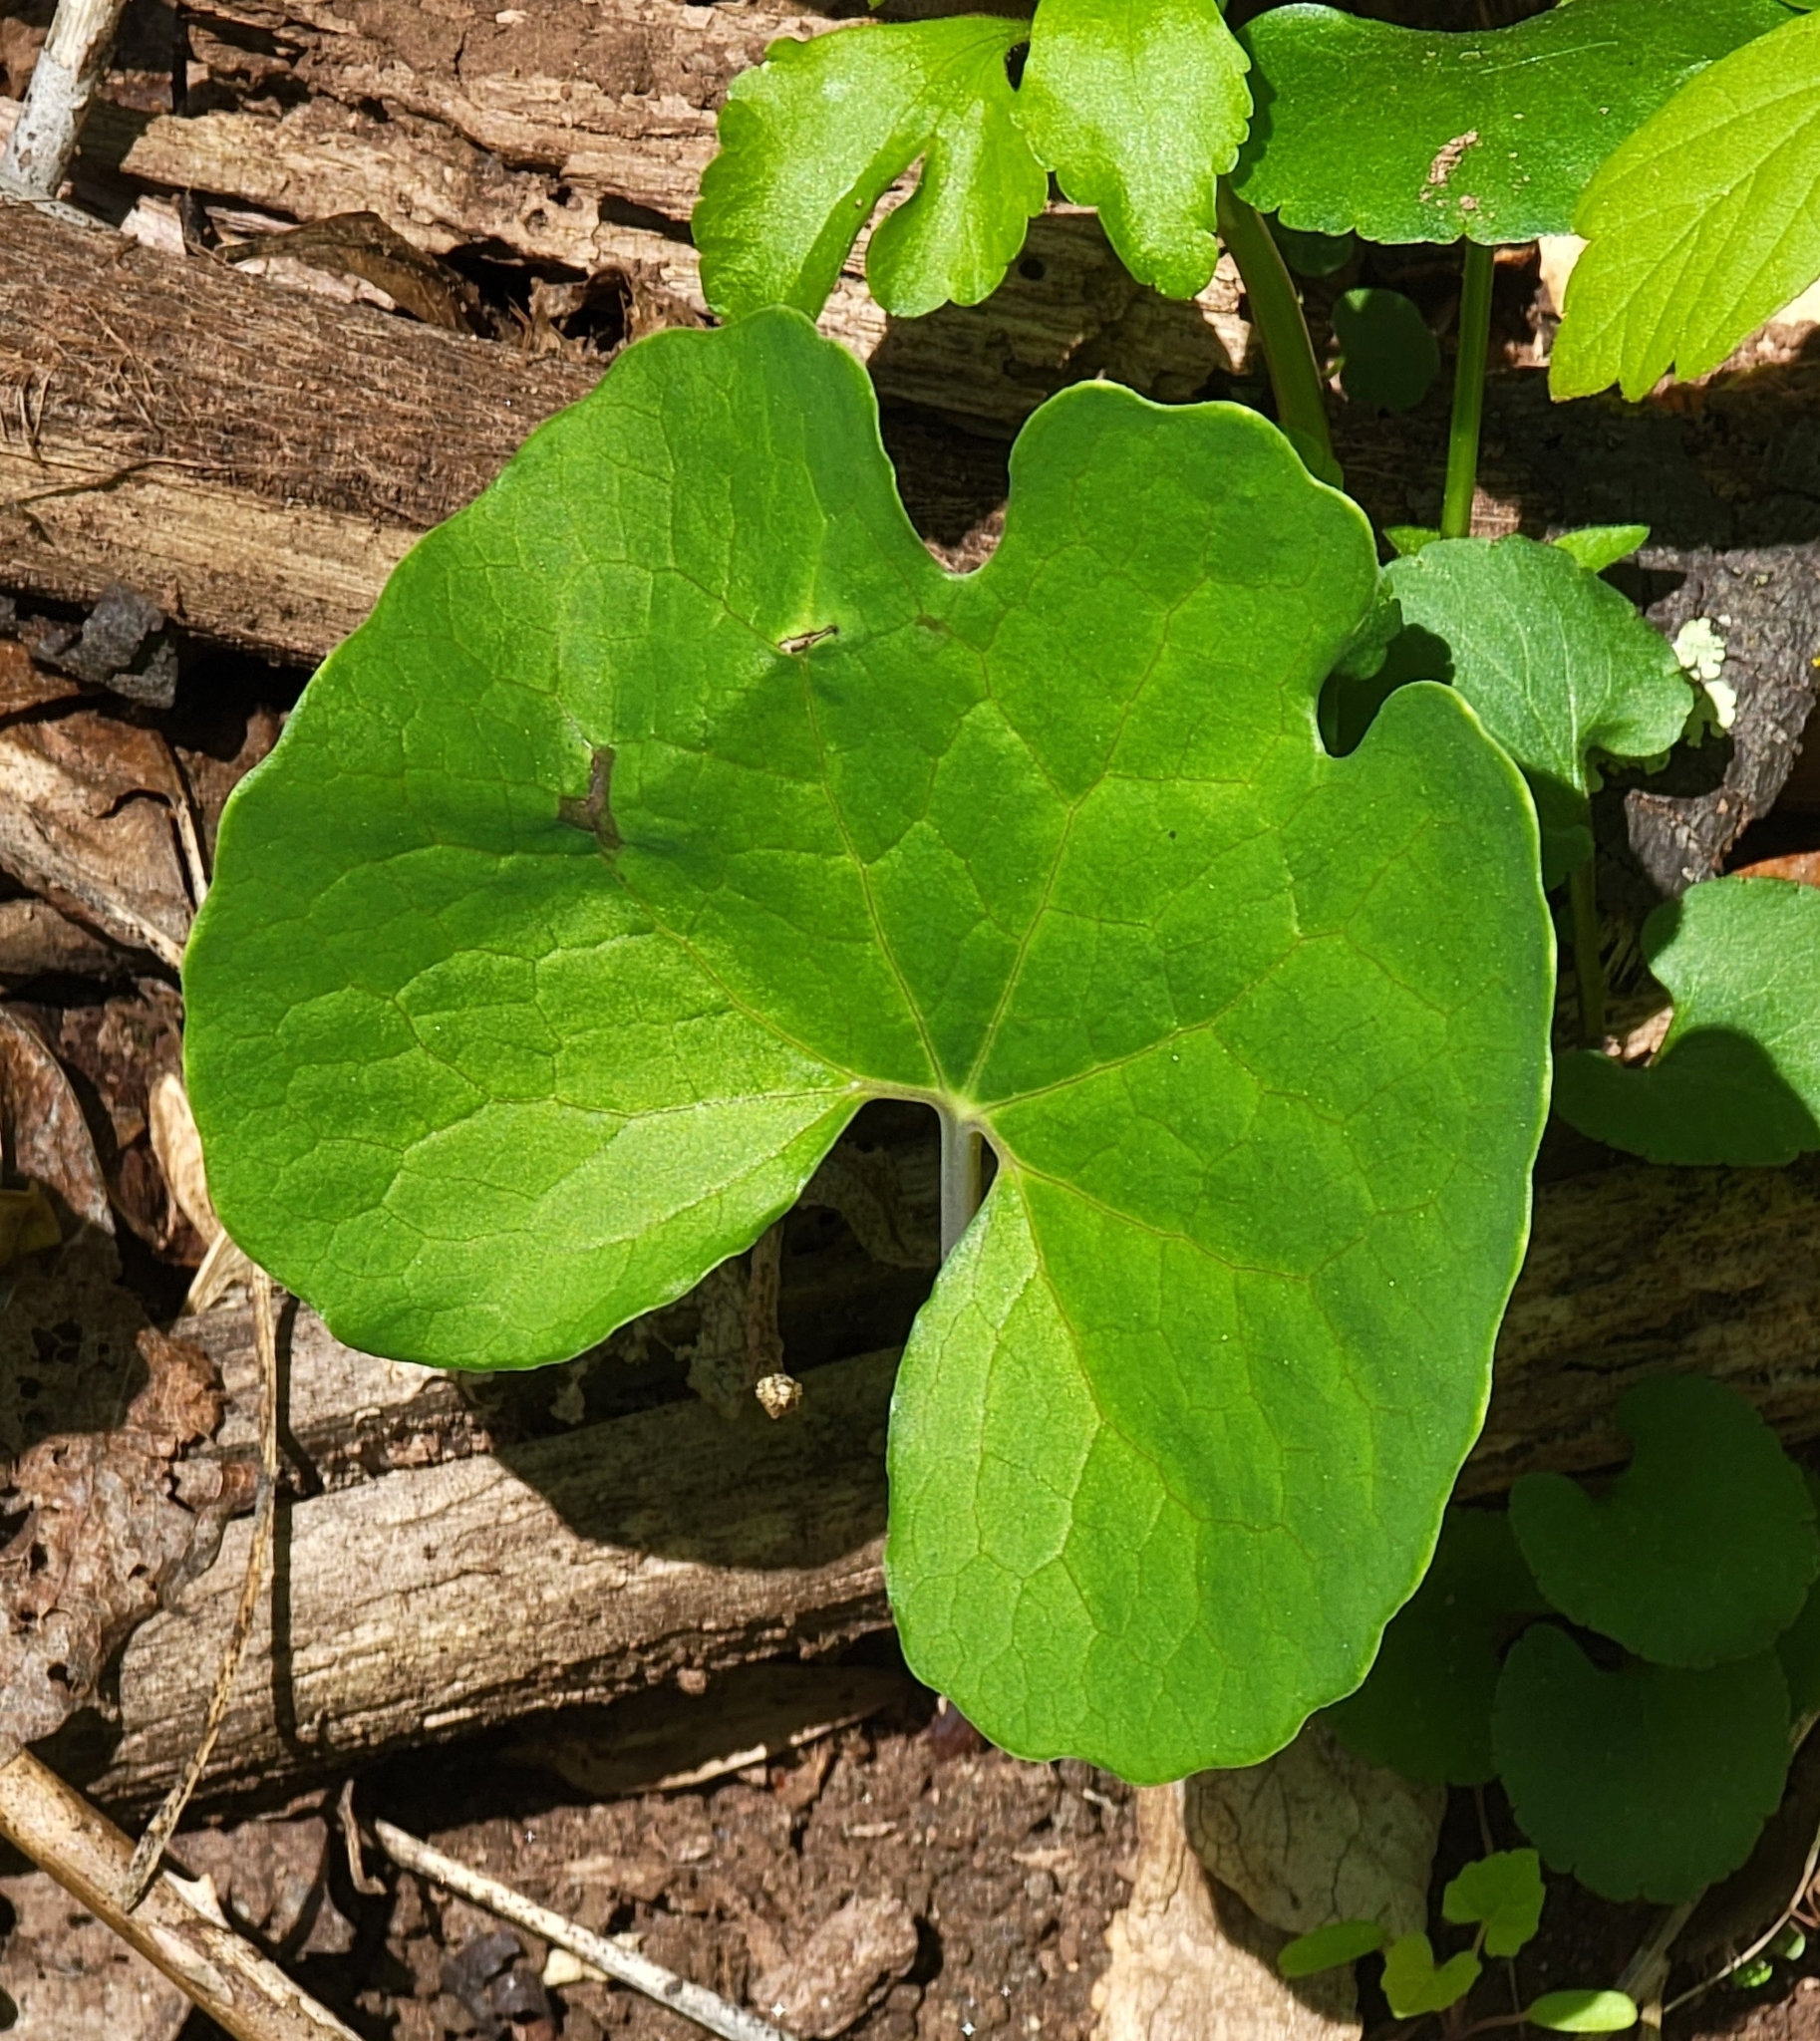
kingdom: Plantae
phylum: Tracheophyta
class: Magnoliopsida
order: Ranunculales
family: Papaveraceae
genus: Sanguinaria
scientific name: Sanguinaria canadensis
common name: Bloodroot
